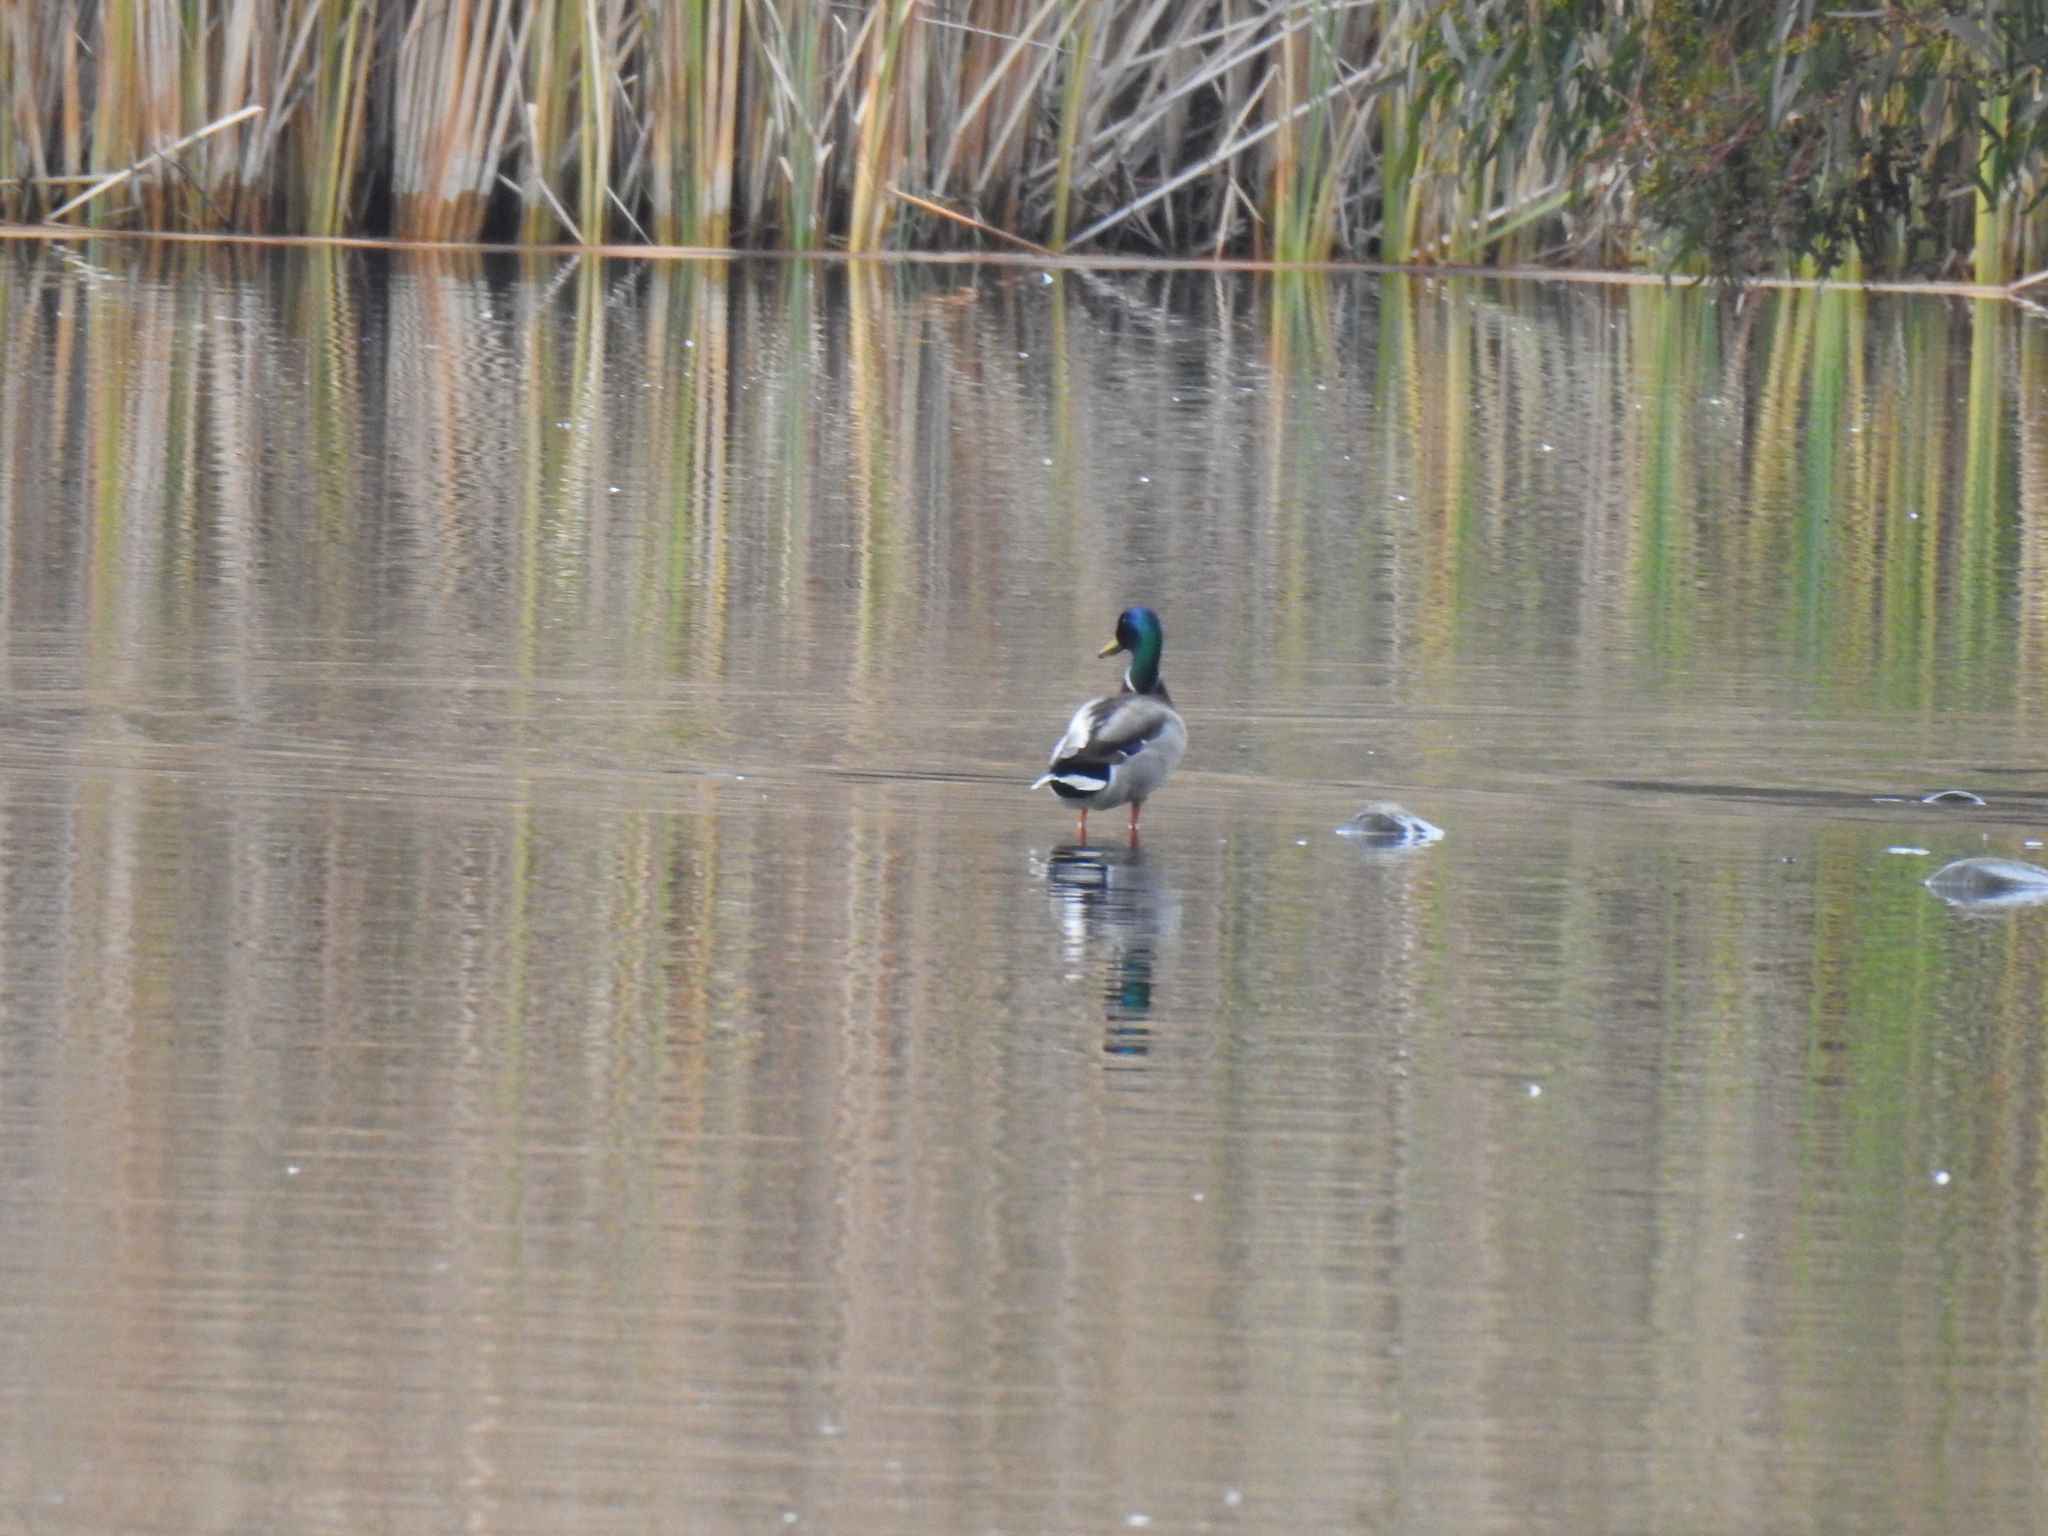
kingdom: Animalia
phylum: Chordata
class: Aves
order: Anseriformes
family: Anatidae
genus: Anas
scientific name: Anas platyrhynchos
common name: Mallard
